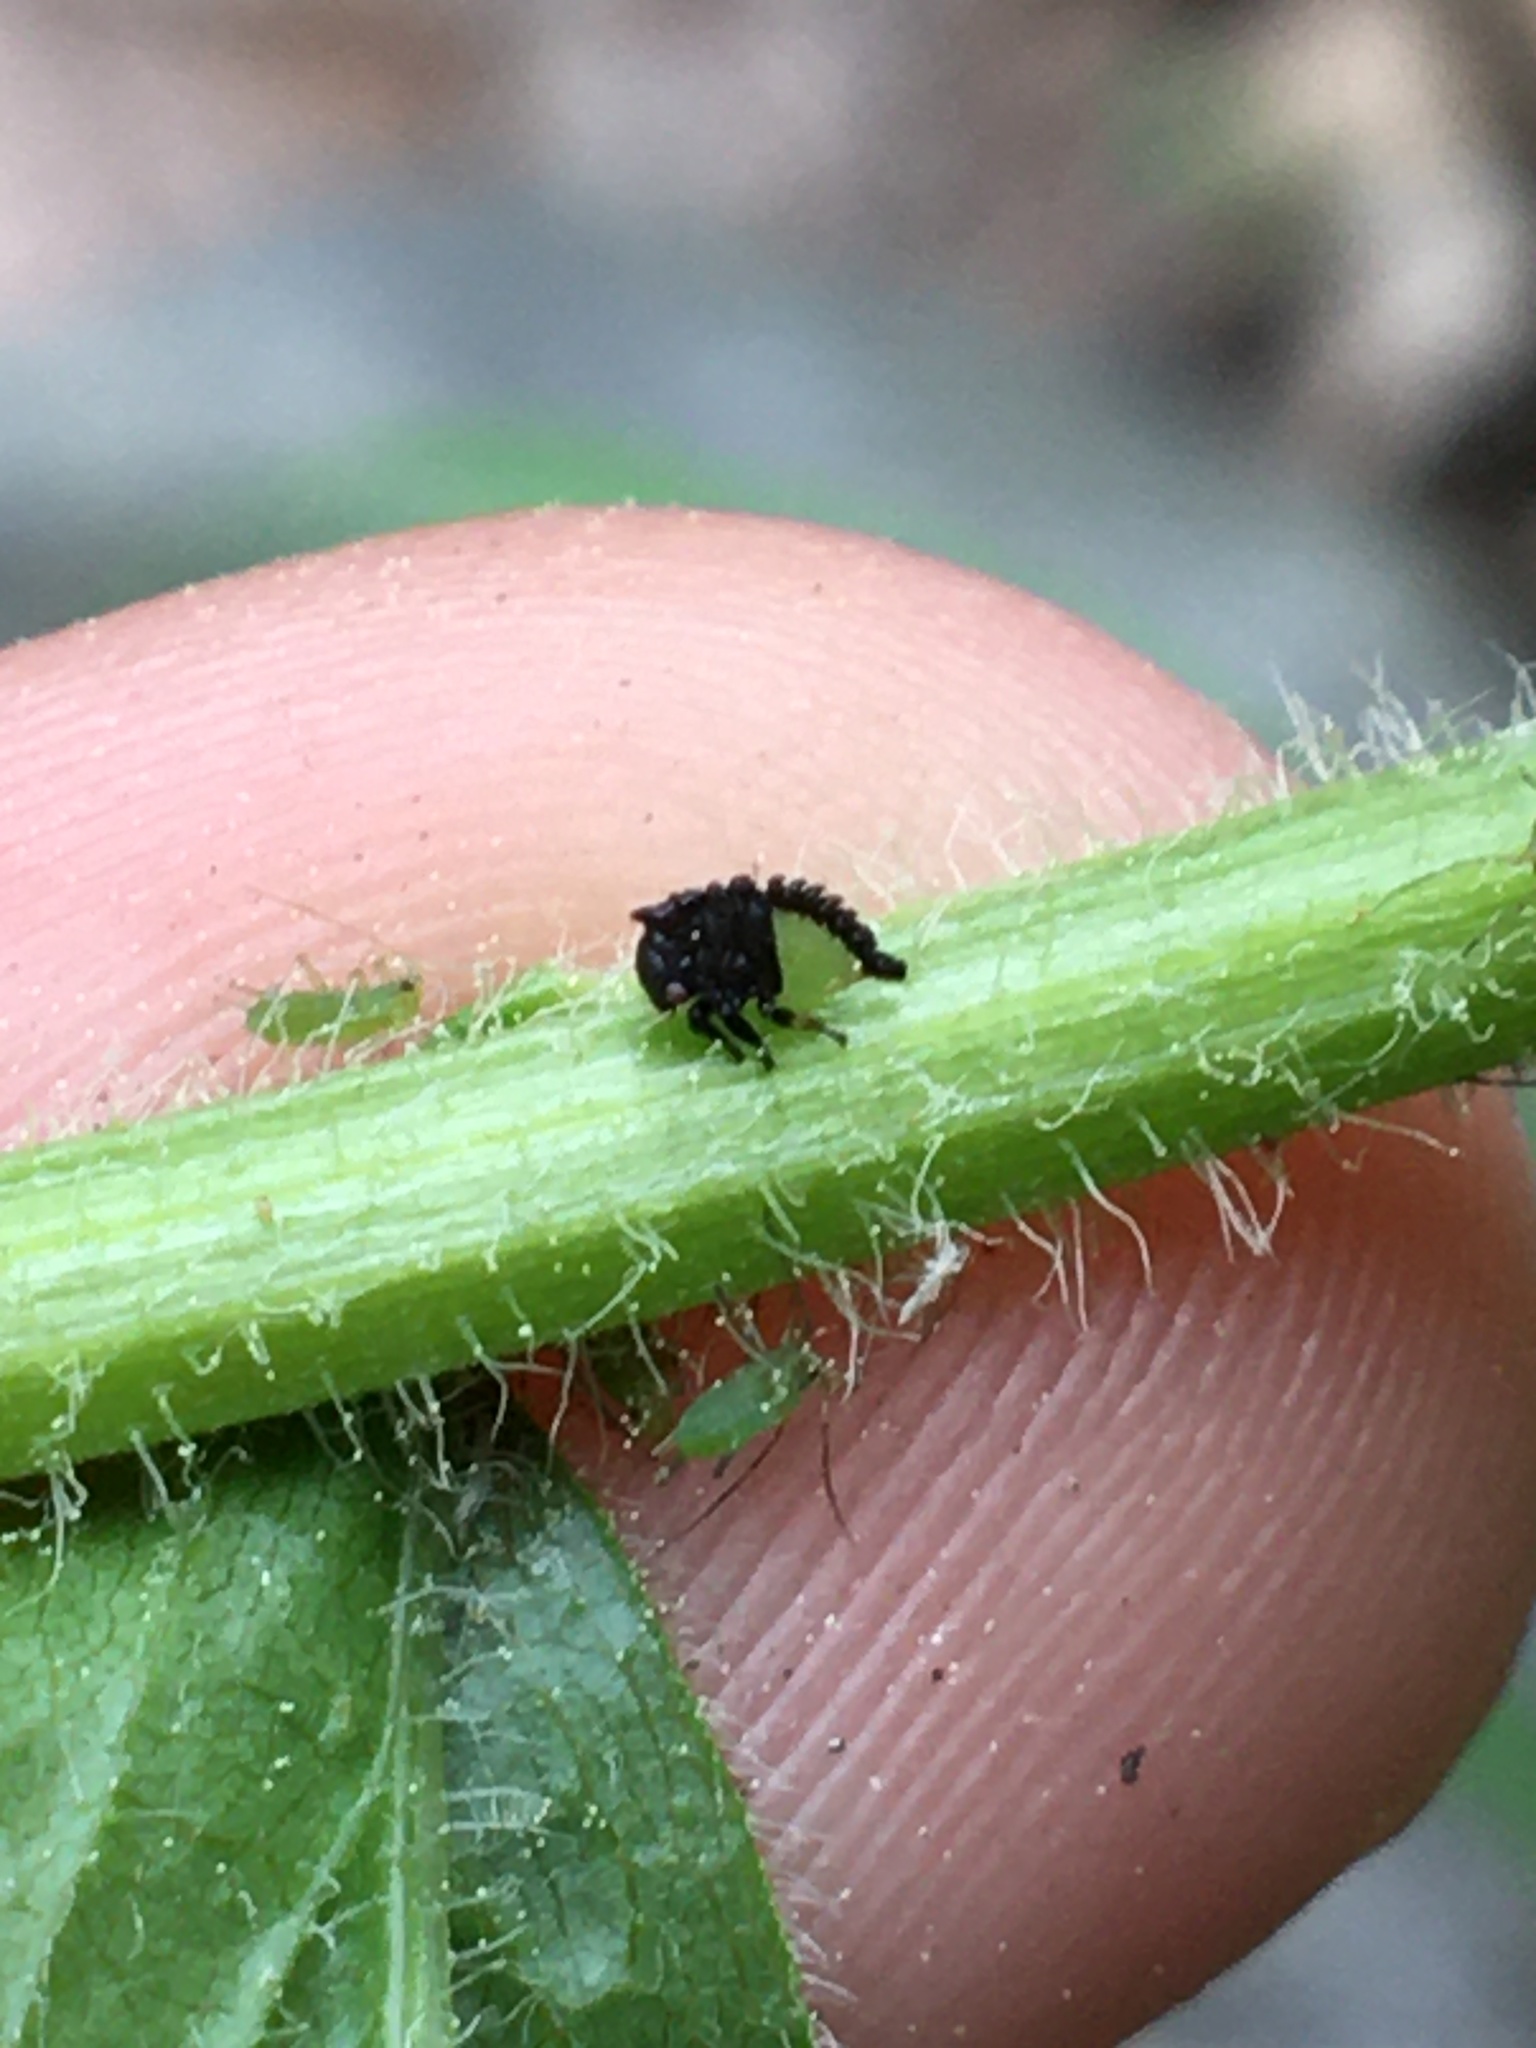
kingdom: Animalia
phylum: Arthropoda
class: Insecta
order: Hemiptera
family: Membracidae
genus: Enchenopa
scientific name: Enchenopa latipes
